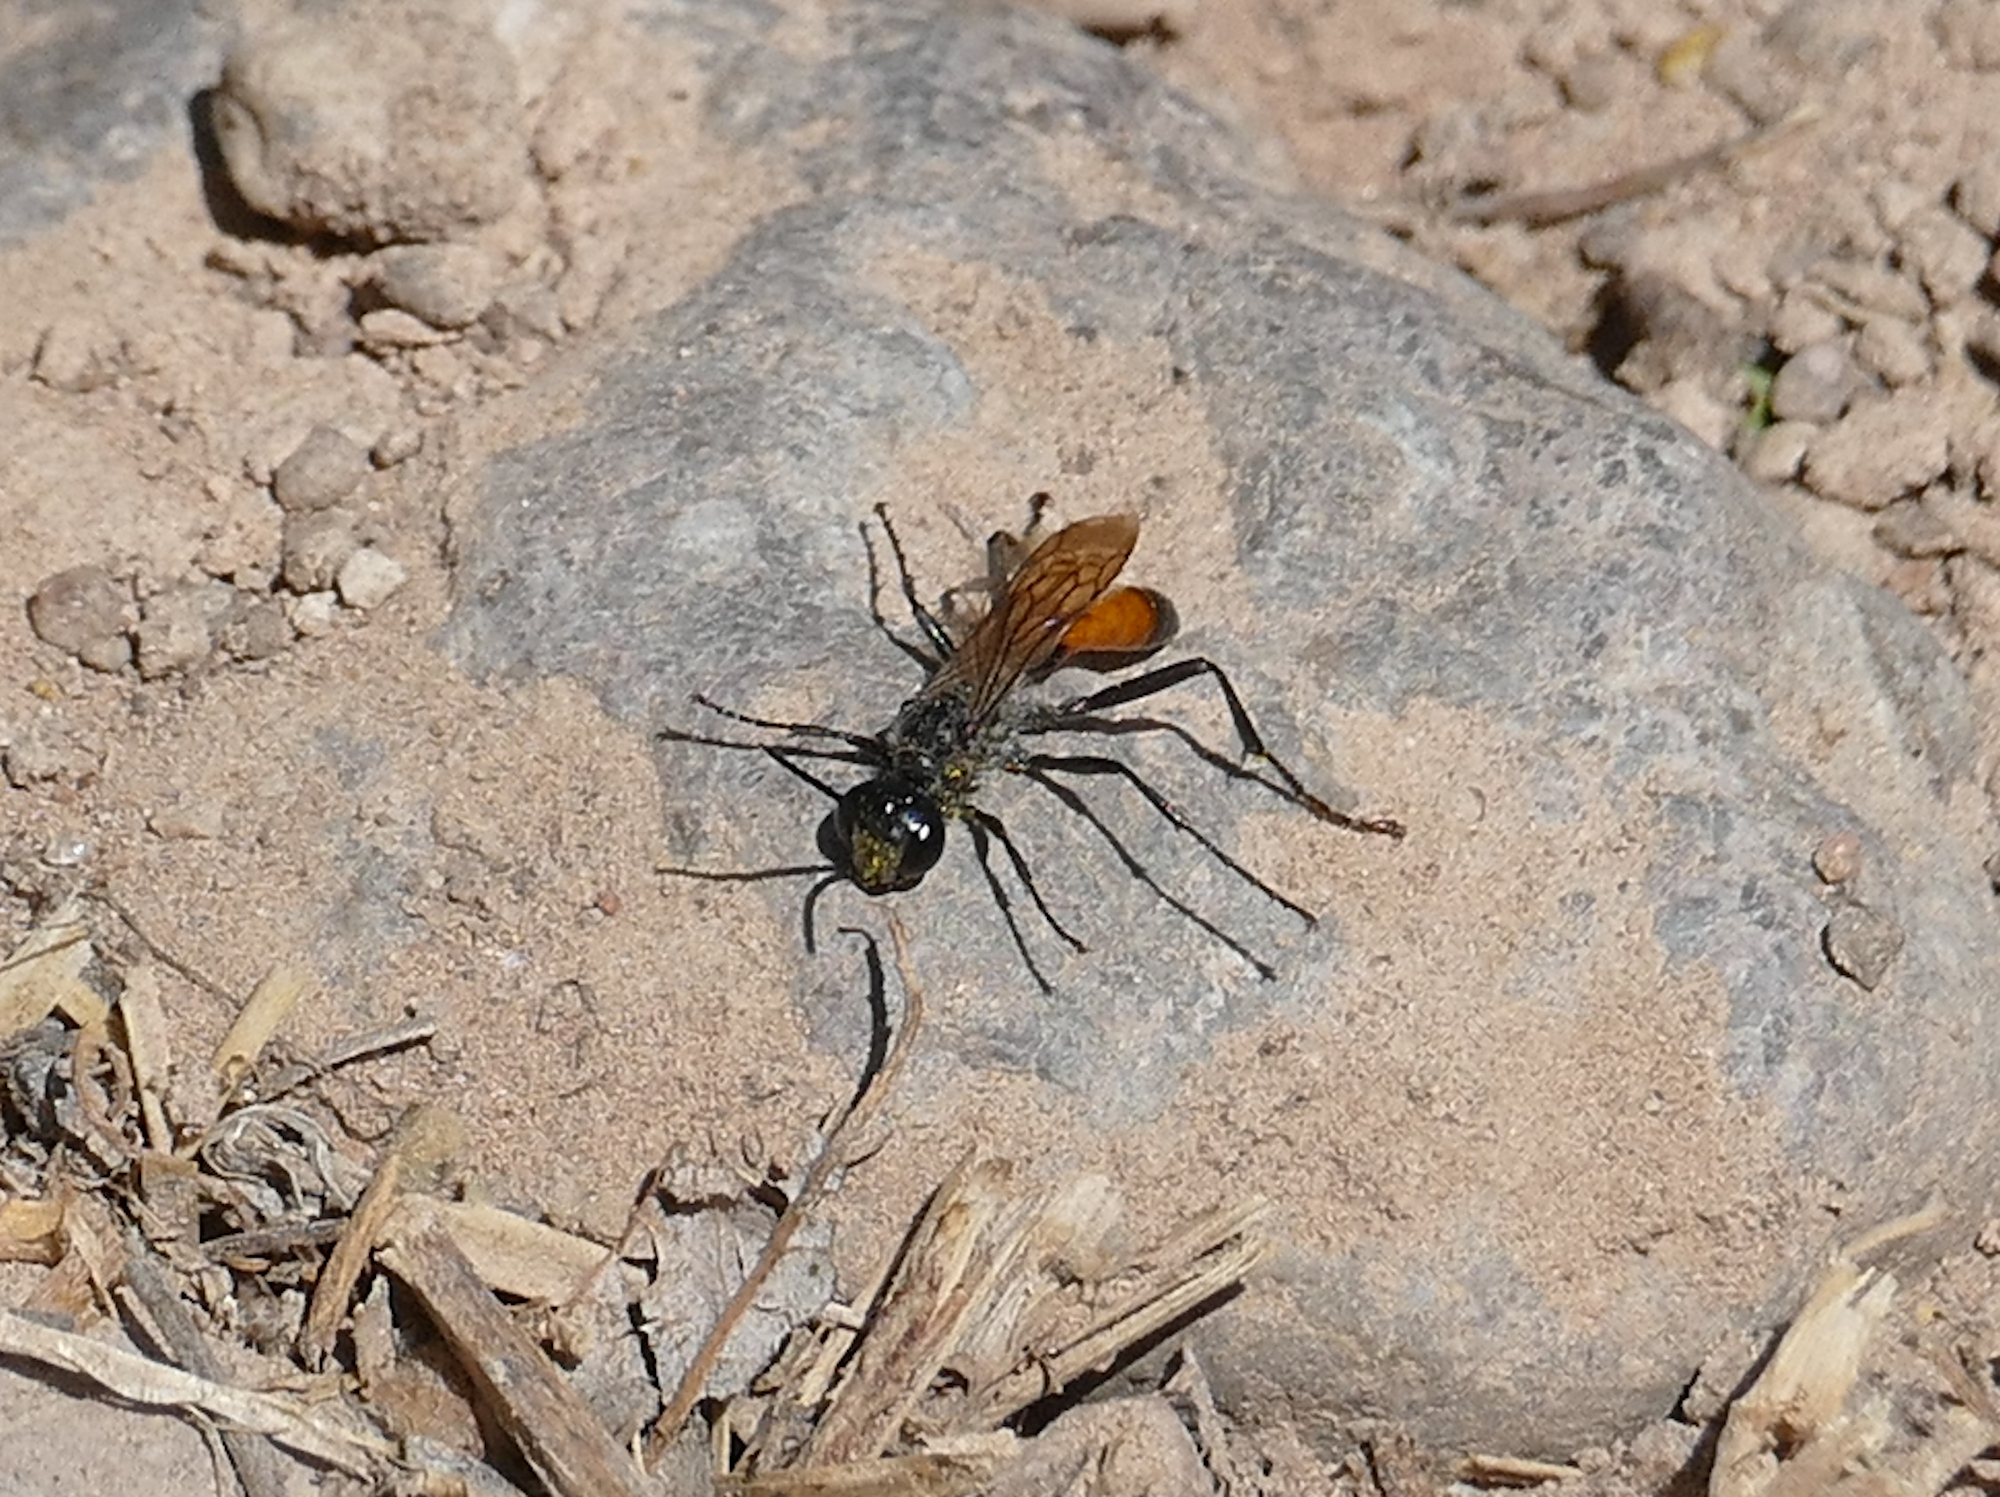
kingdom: Animalia
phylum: Arthropoda
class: Insecta
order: Hymenoptera
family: Sphecidae
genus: Podalonia
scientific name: Podalonia
